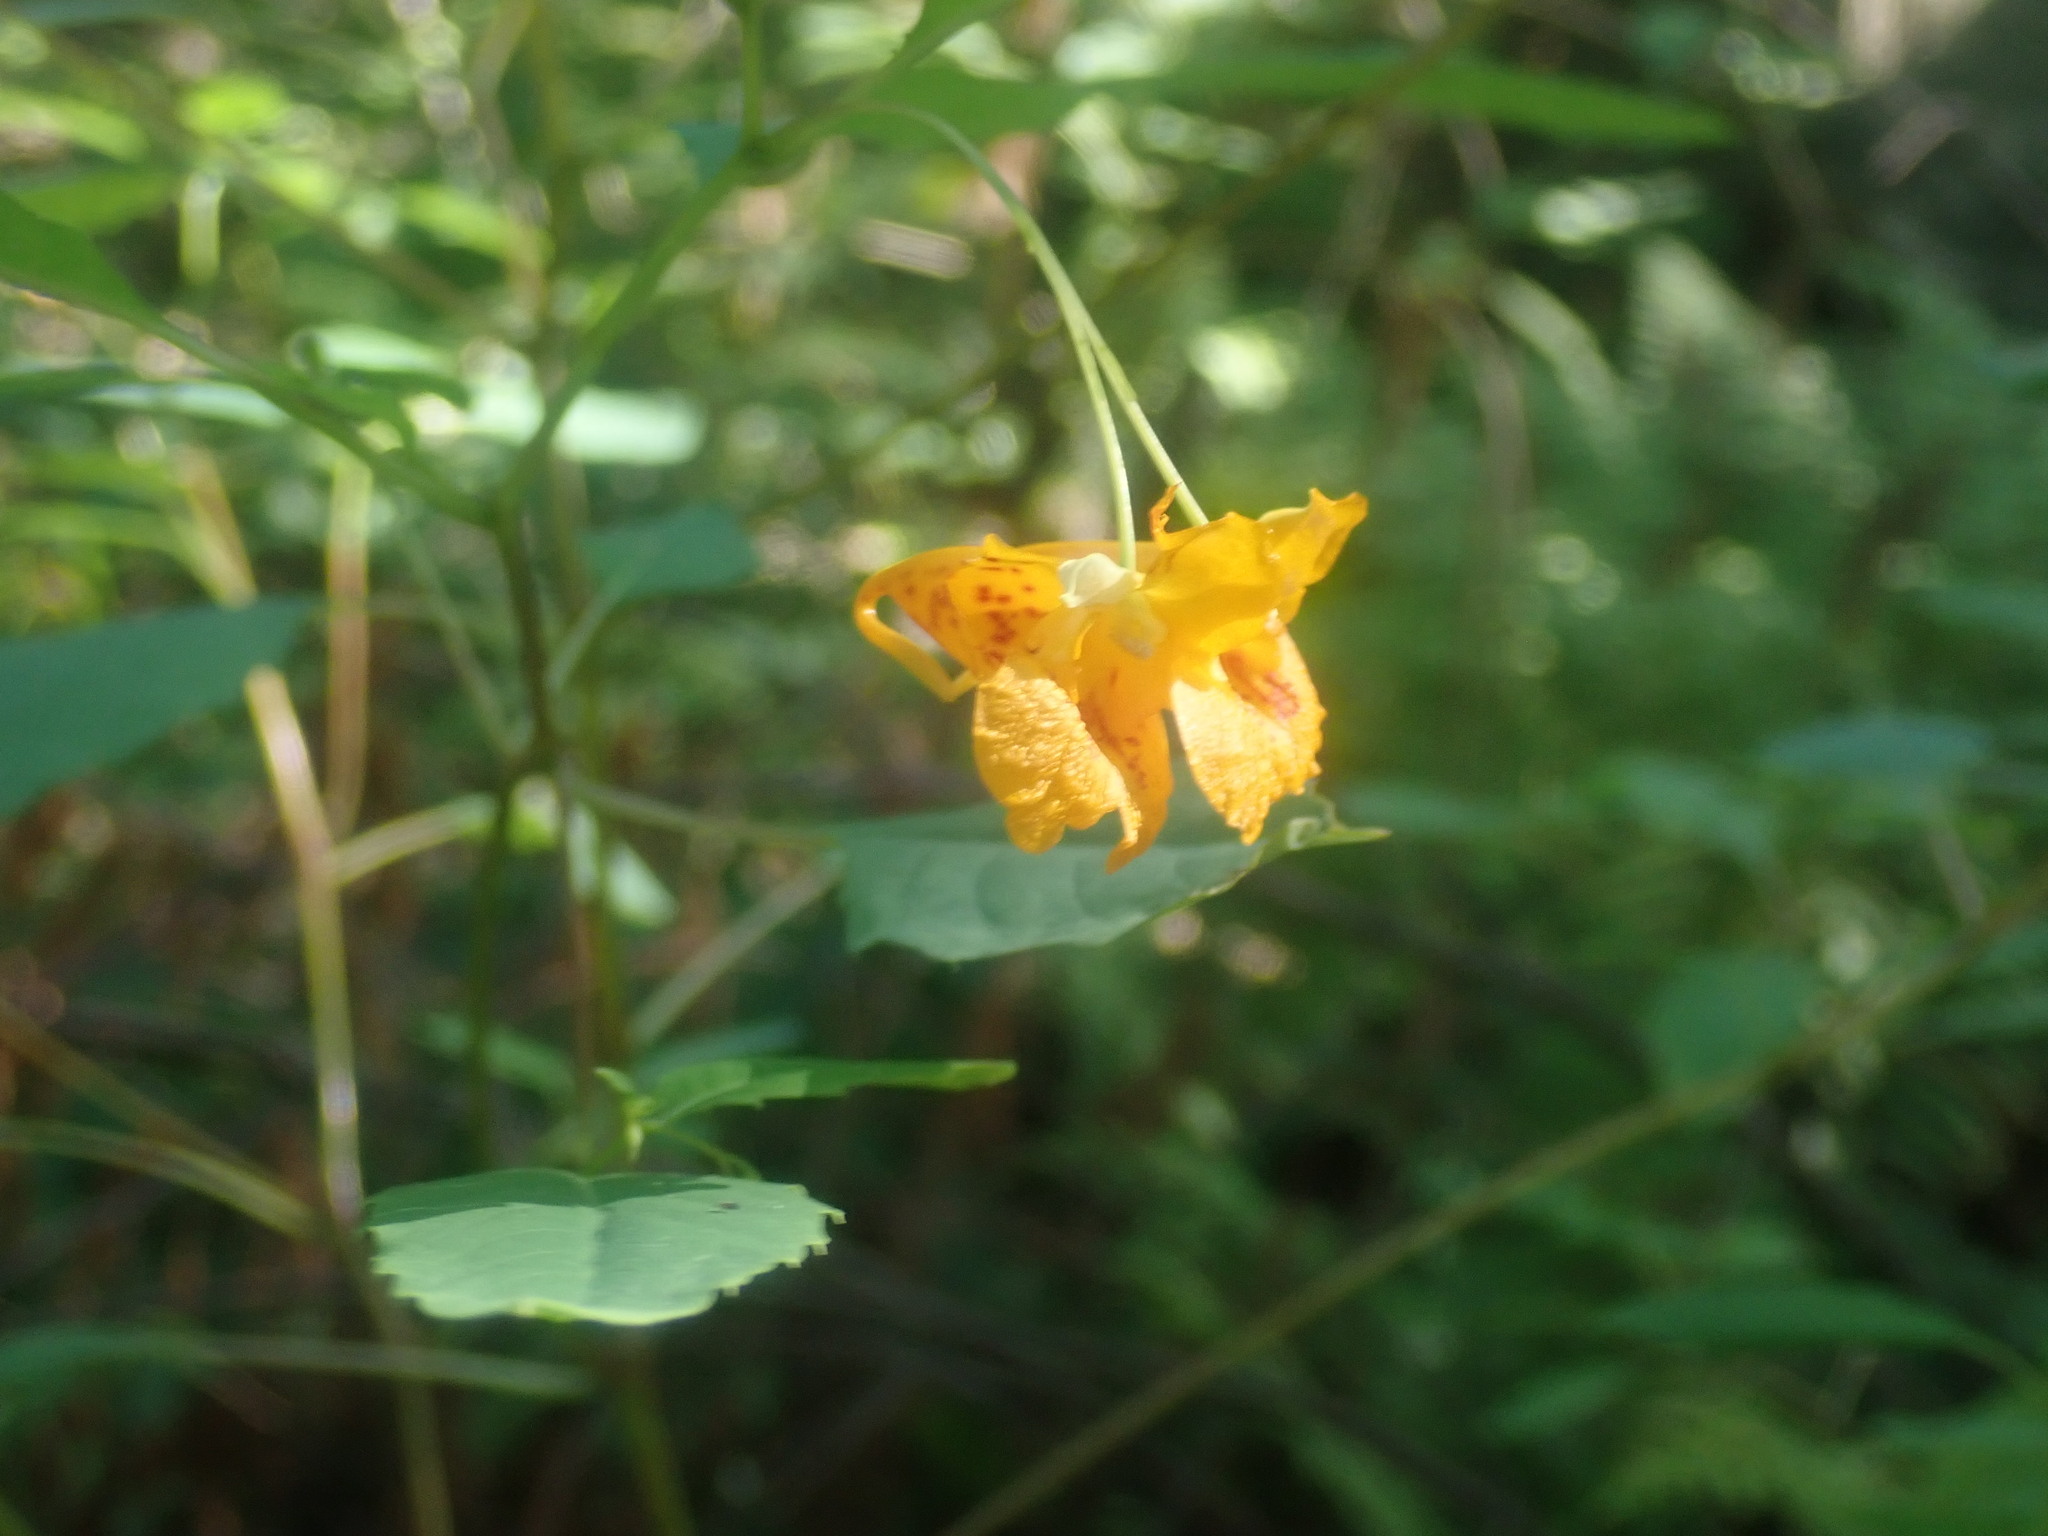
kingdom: Plantae
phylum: Tracheophyta
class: Magnoliopsida
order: Ericales
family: Balsaminaceae
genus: Impatiens
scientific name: Impatiens capensis
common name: Orange balsam
